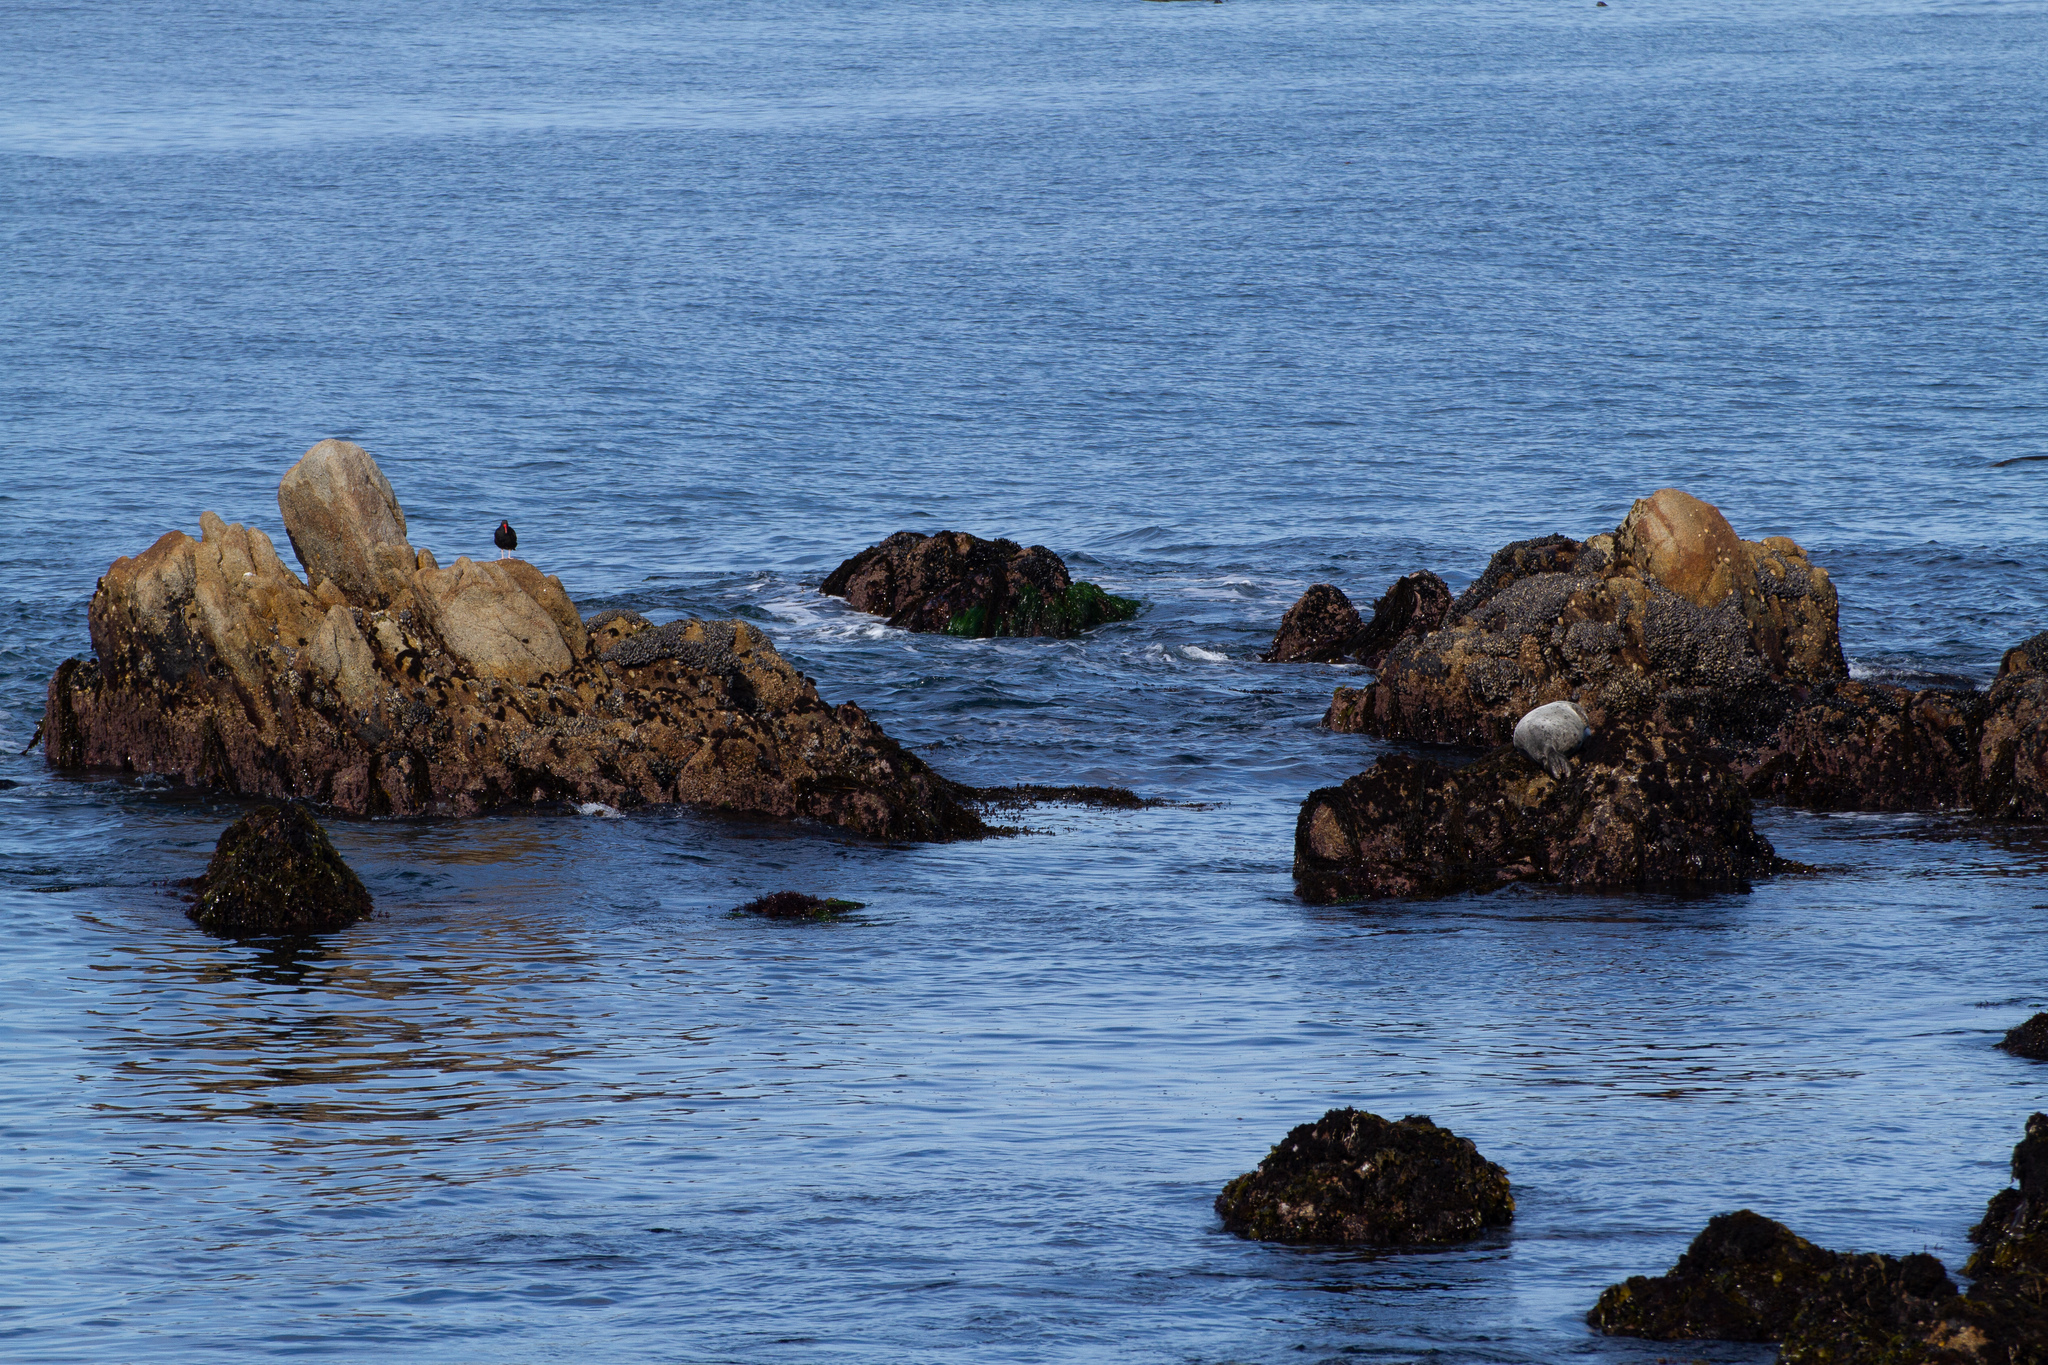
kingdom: Animalia
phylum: Chordata
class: Aves
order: Charadriiformes
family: Haematopodidae
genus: Haematopus
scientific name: Haematopus bachmani
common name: Black oystercatcher
